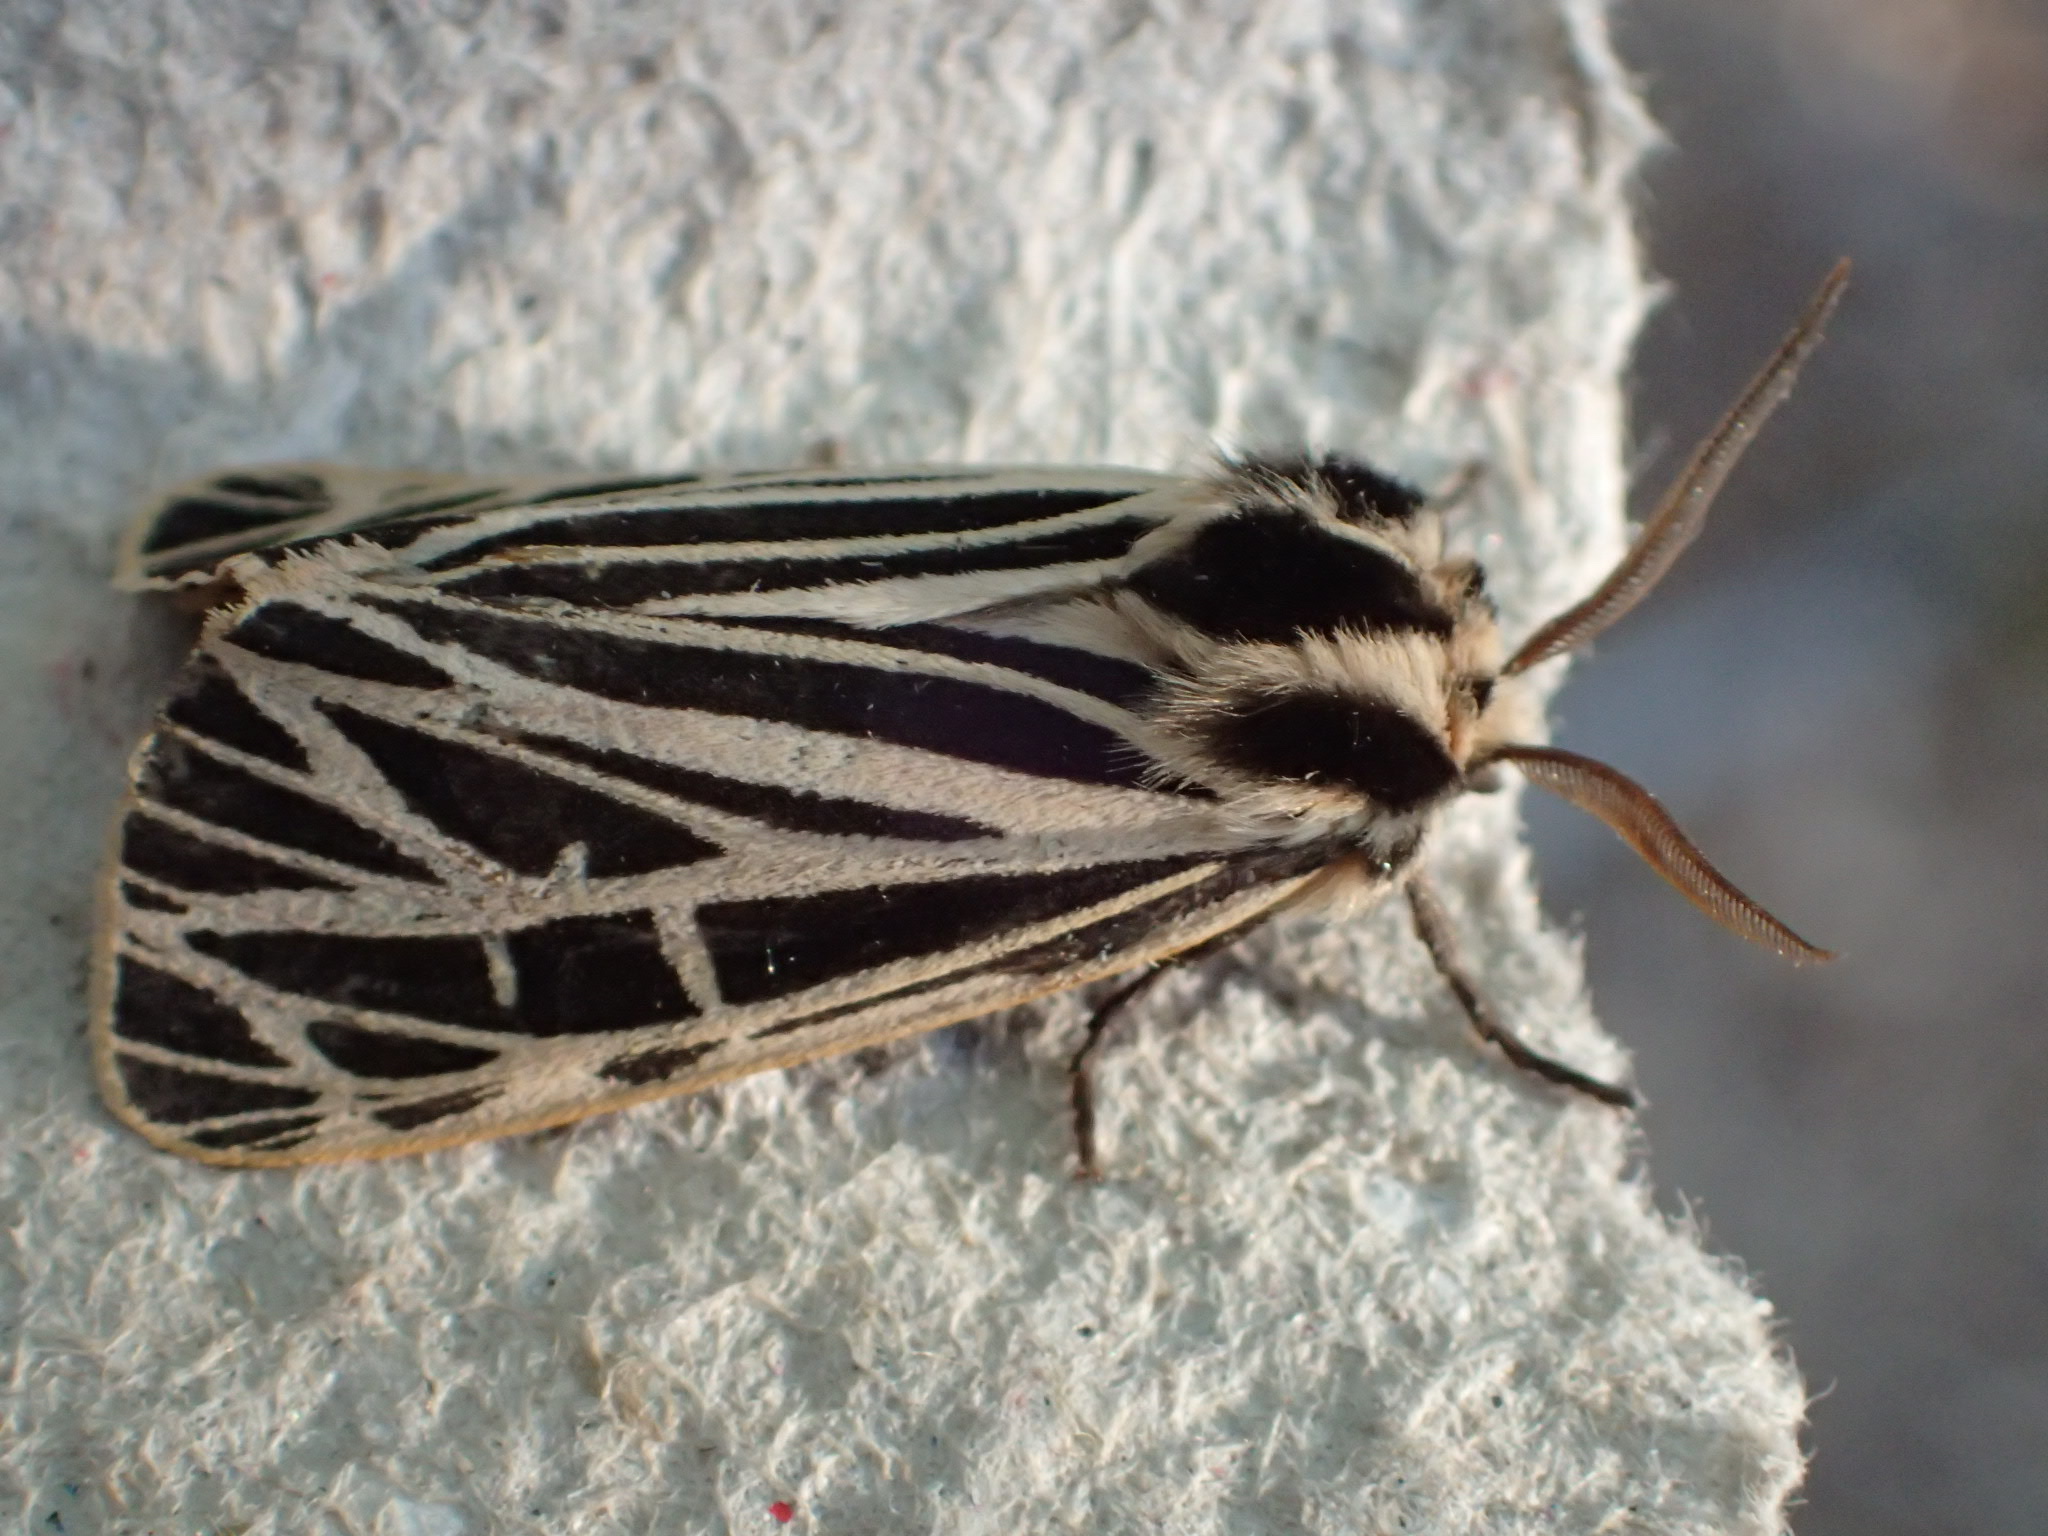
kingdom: Animalia
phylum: Arthropoda
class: Insecta
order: Lepidoptera
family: Erebidae
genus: Grammia
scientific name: Grammia virgo
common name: Virgin tiger moth
